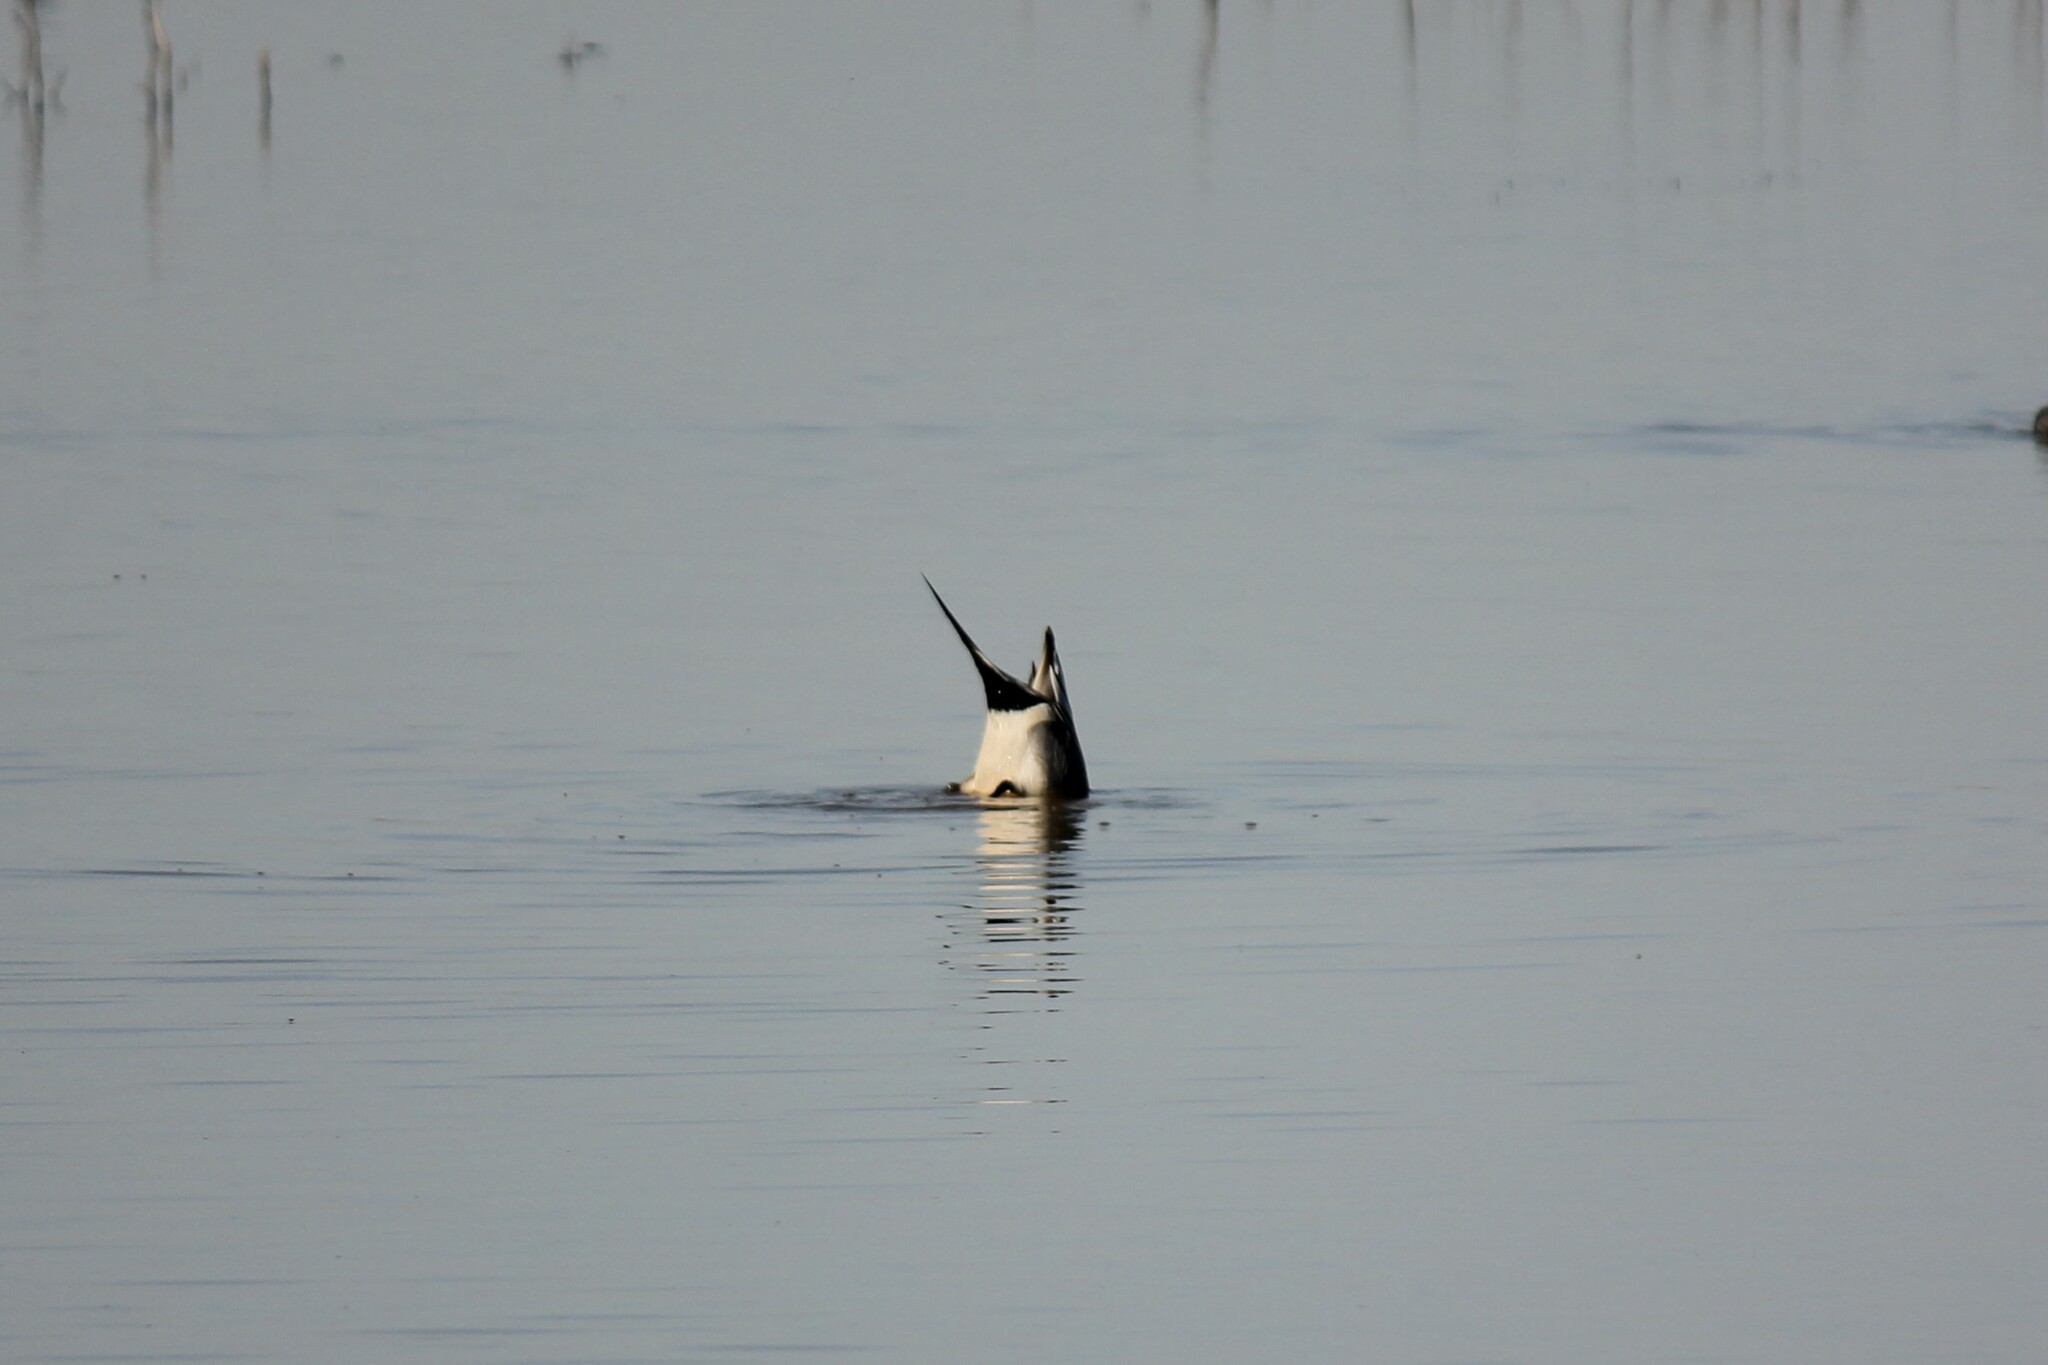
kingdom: Animalia
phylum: Chordata
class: Aves
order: Anseriformes
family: Anatidae
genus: Anas
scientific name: Anas acuta
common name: Northern pintail
